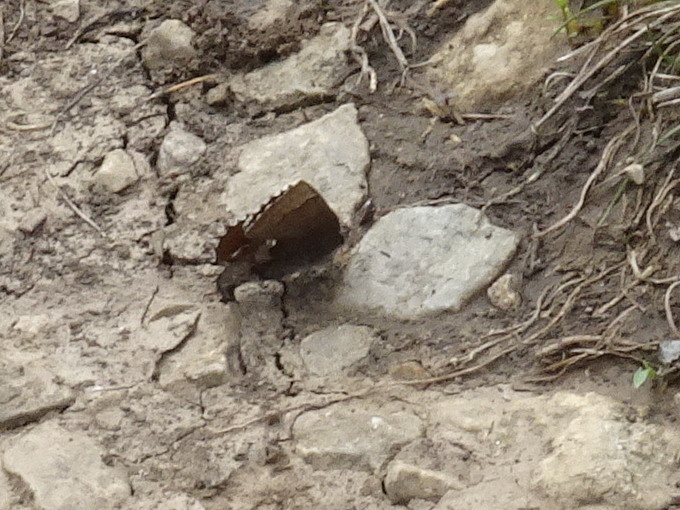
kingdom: Animalia
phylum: Arthropoda
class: Insecta
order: Lepidoptera
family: Lycaenidae
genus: Incisalia
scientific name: Incisalia henrici
